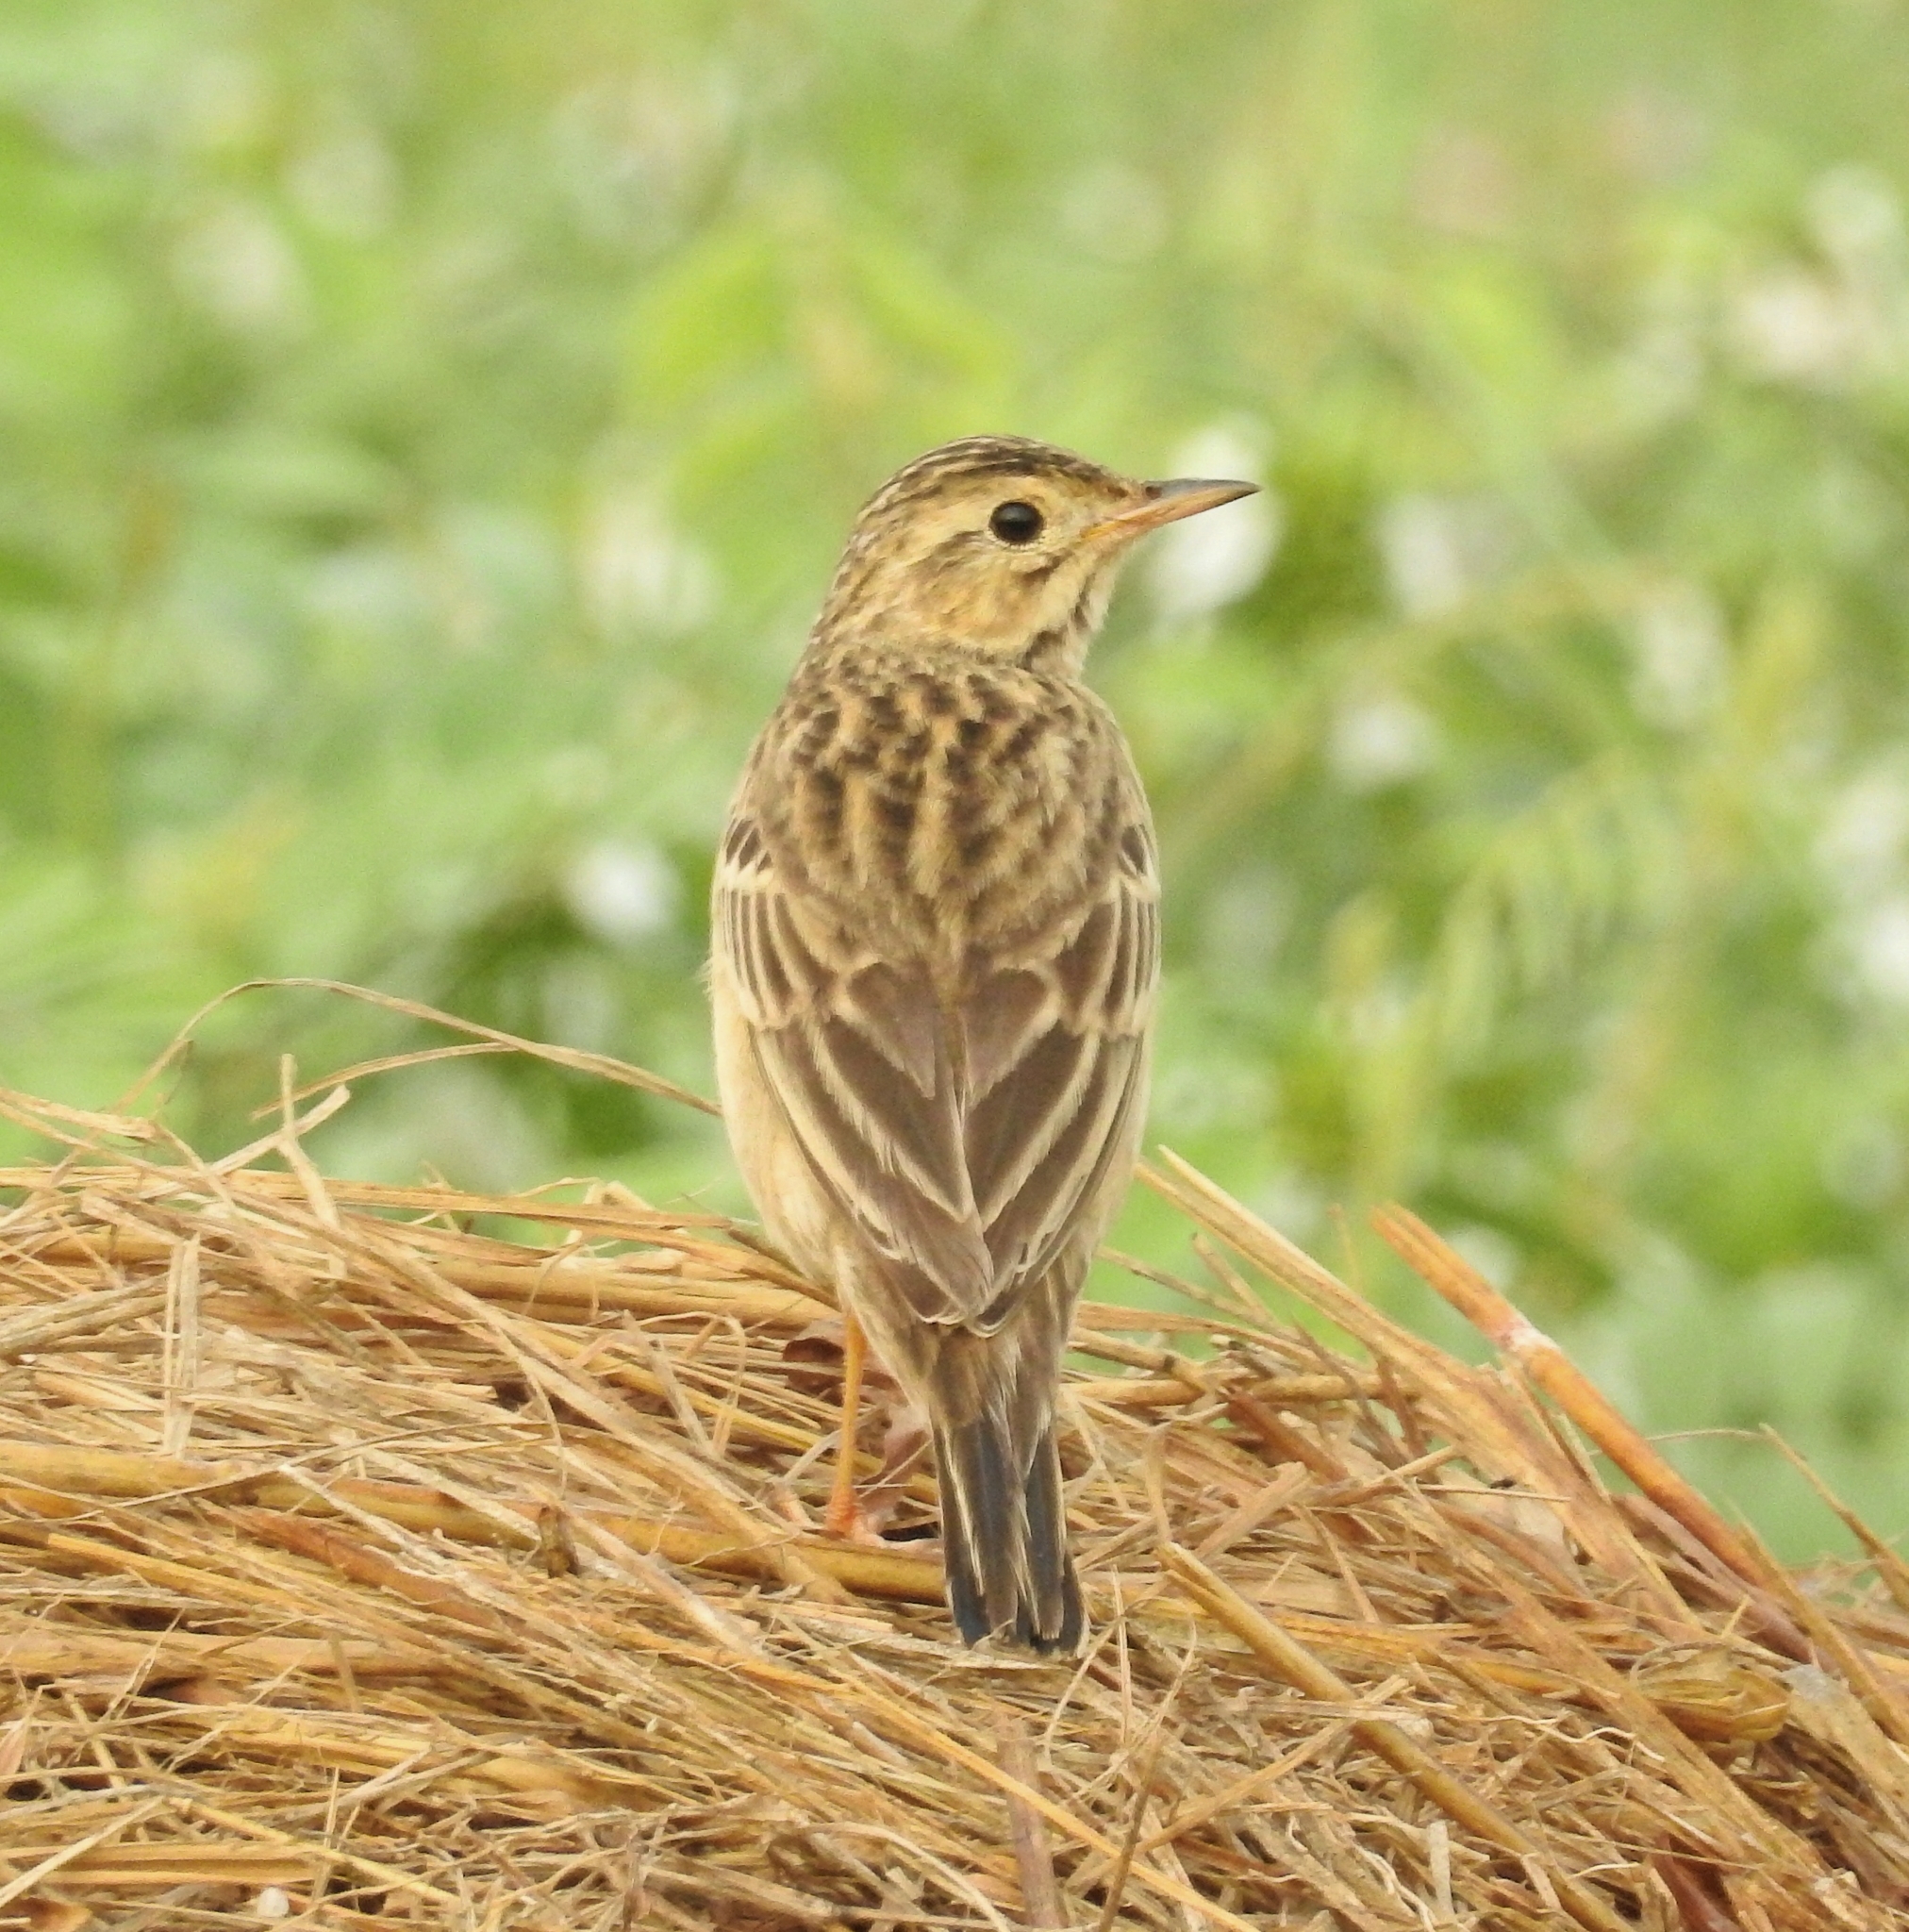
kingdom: Animalia
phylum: Chordata
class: Aves
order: Passeriformes
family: Motacillidae
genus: Anthus
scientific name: Anthus godlewskii
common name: Blyth's pipit
